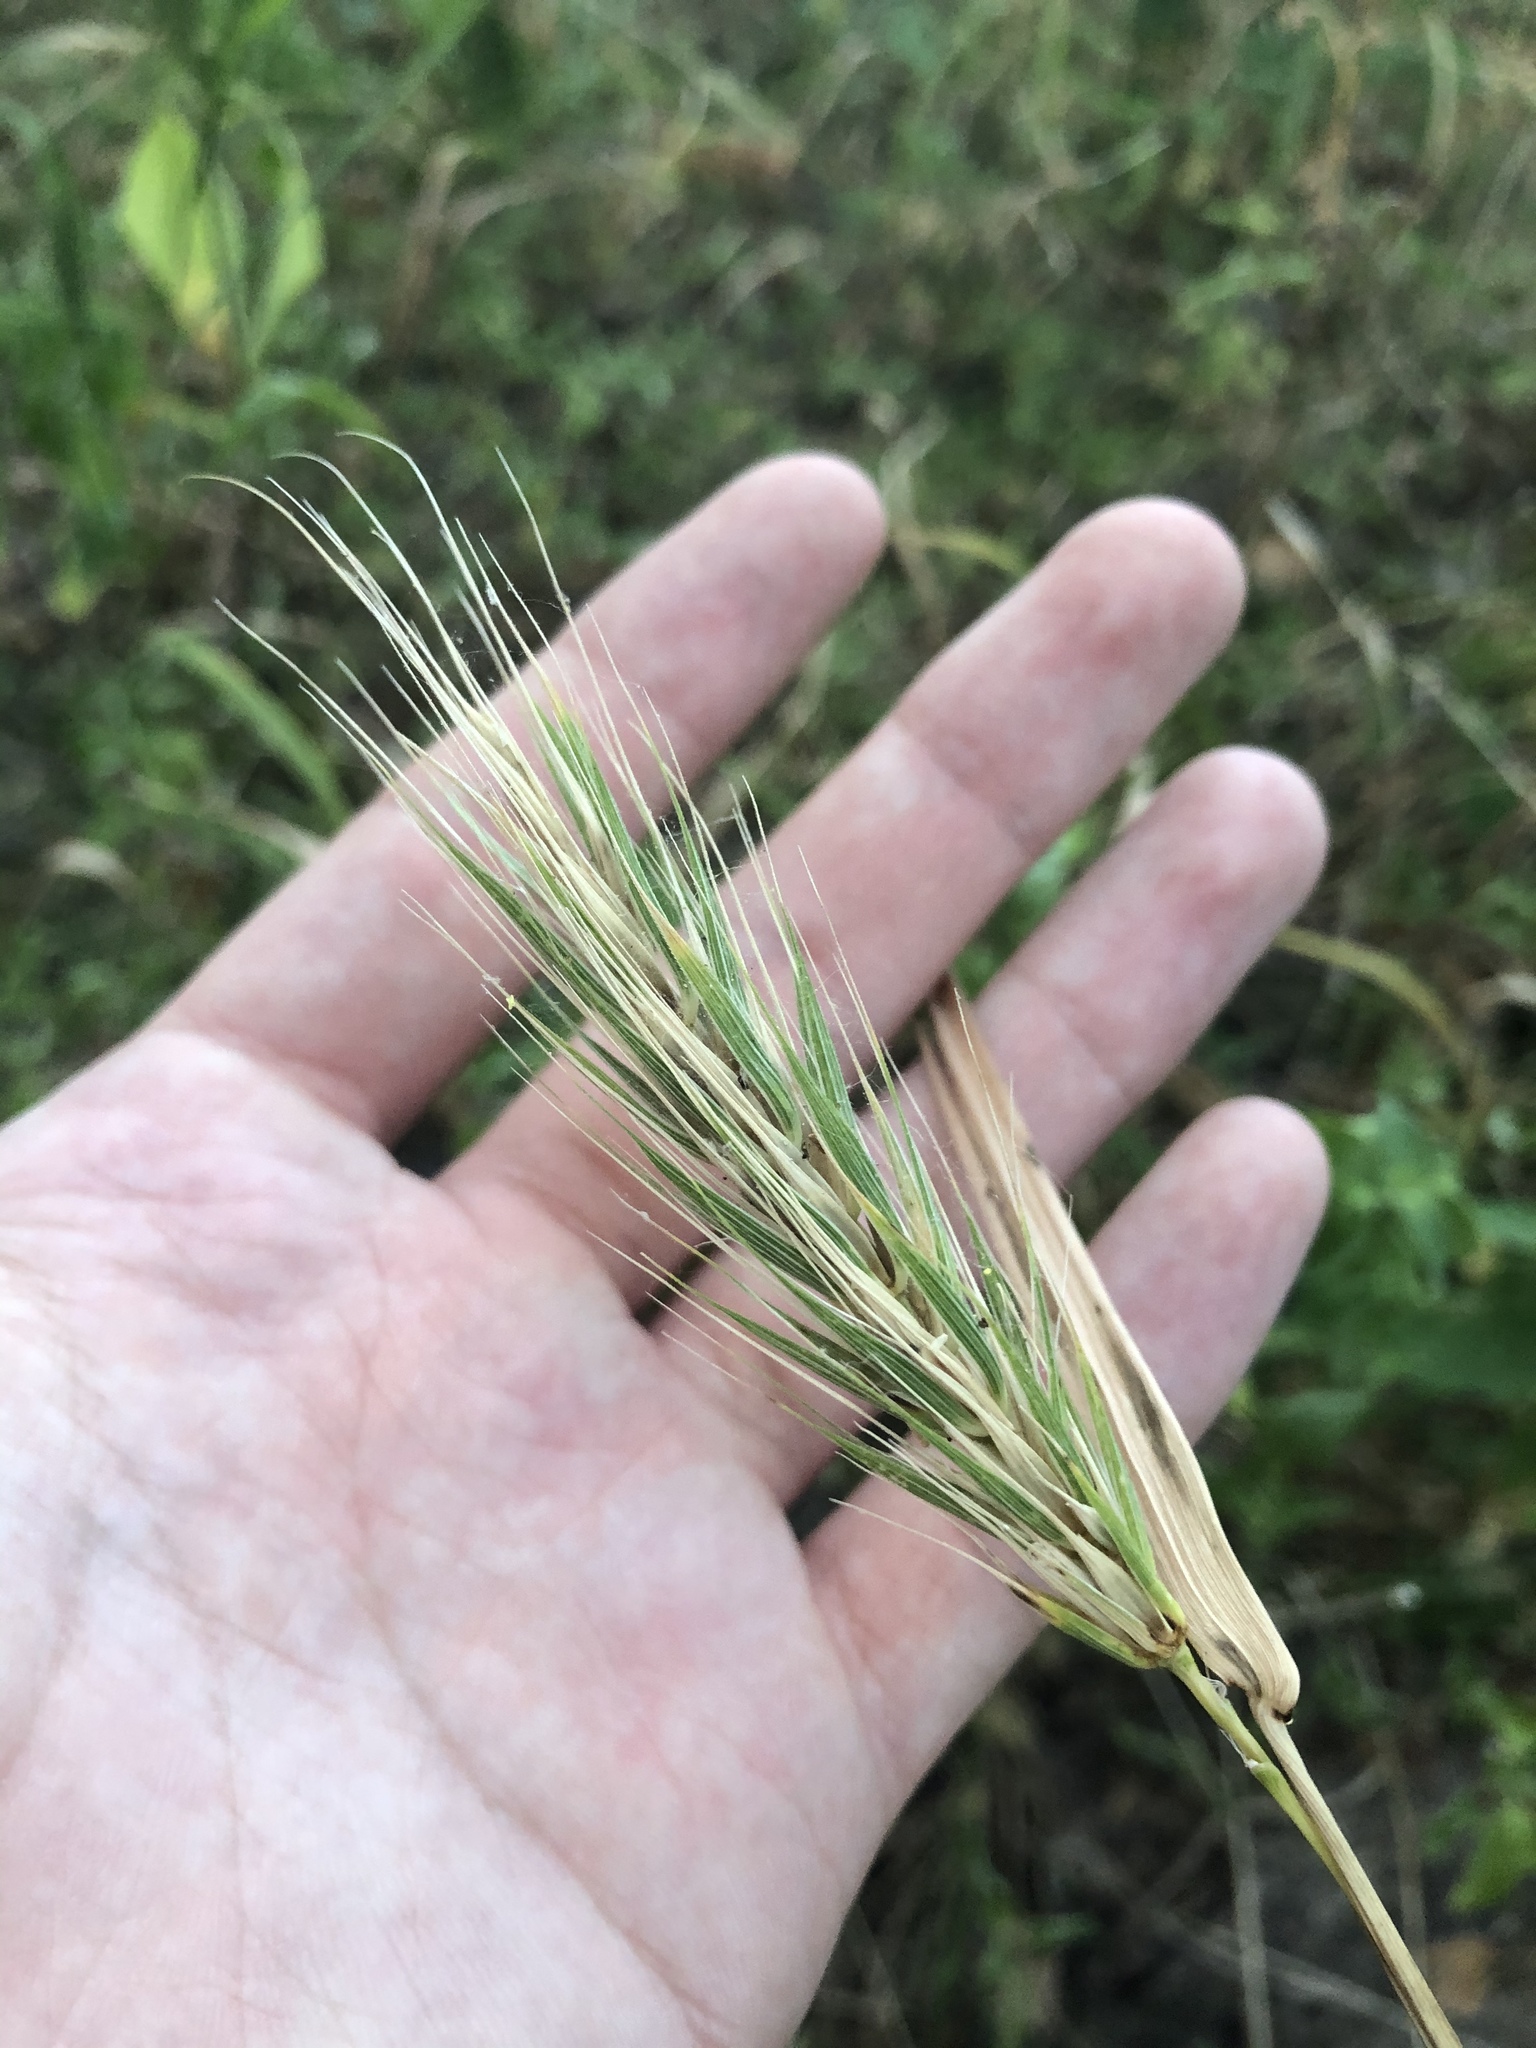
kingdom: Plantae
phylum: Tracheophyta
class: Liliopsida
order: Poales
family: Poaceae
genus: Elymus
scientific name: Elymus macgregorii
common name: Early wild rye
